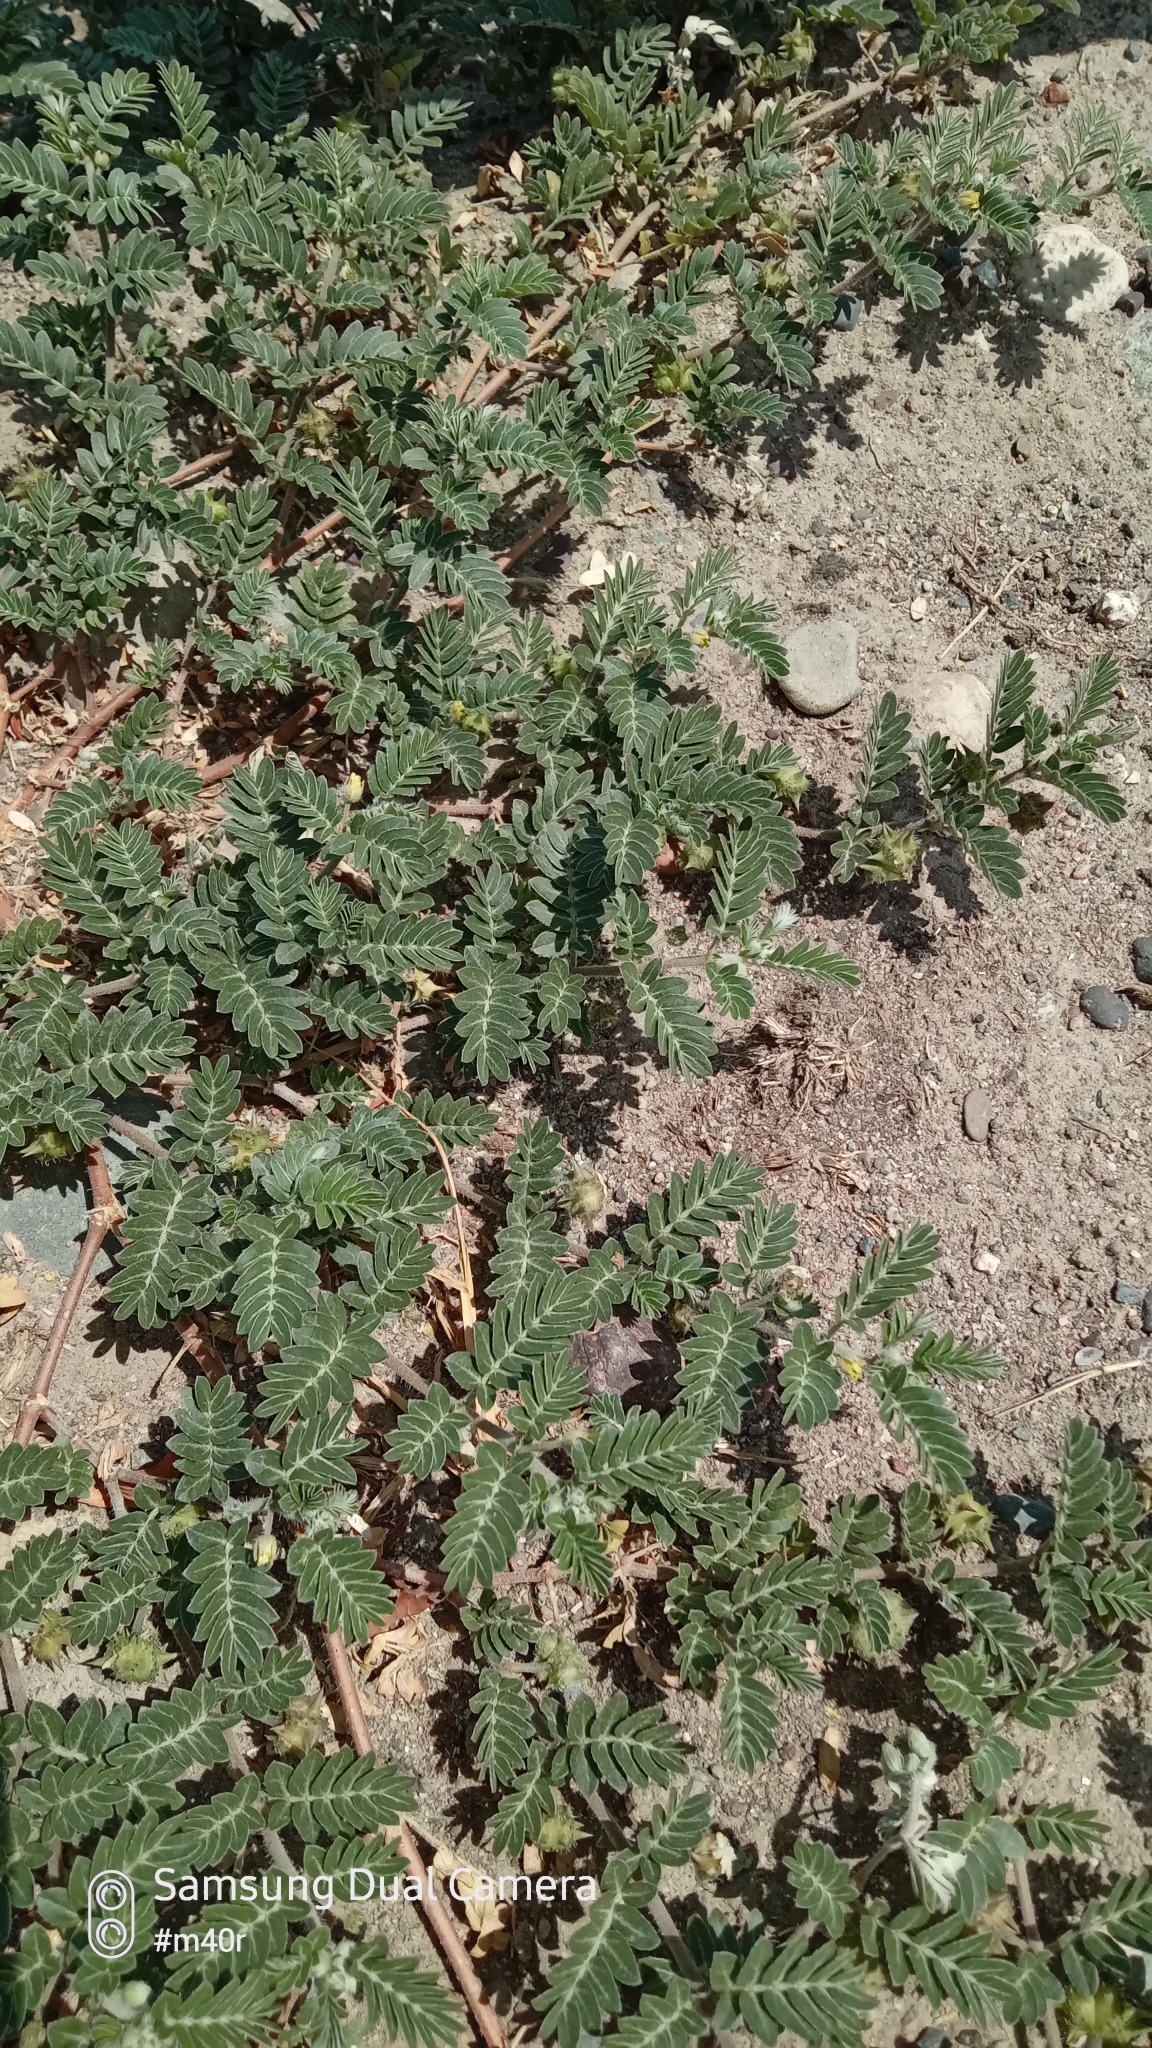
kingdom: Plantae
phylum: Tracheophyta
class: Magnoliopsida
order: Zygophyllales
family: Zygophyllaceae
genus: Tribulus
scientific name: Tribulus terrestris
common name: Puncturevine
